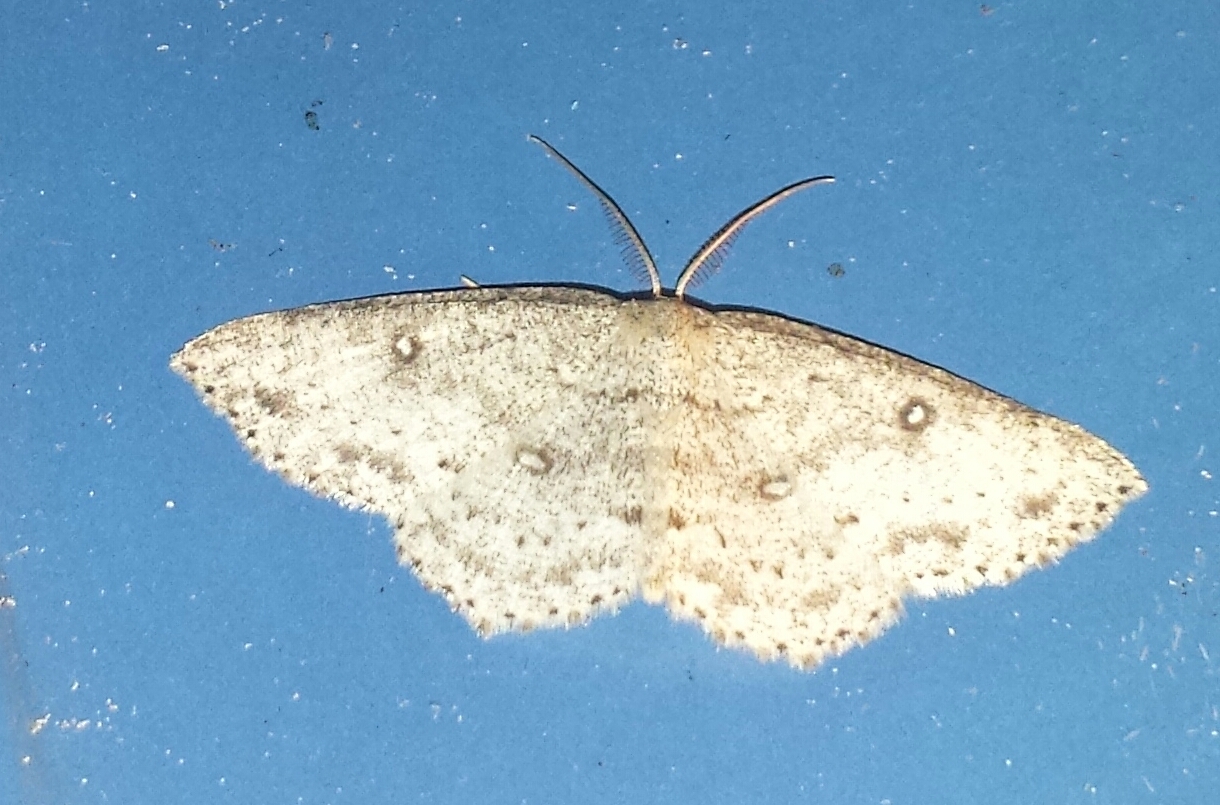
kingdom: Animalia
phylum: Arthropoda
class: Insecta
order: Lepidoptera
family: Geometridae
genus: Cyclophora
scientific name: Cyclophora pendulinaria
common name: Sweet fern geometer
